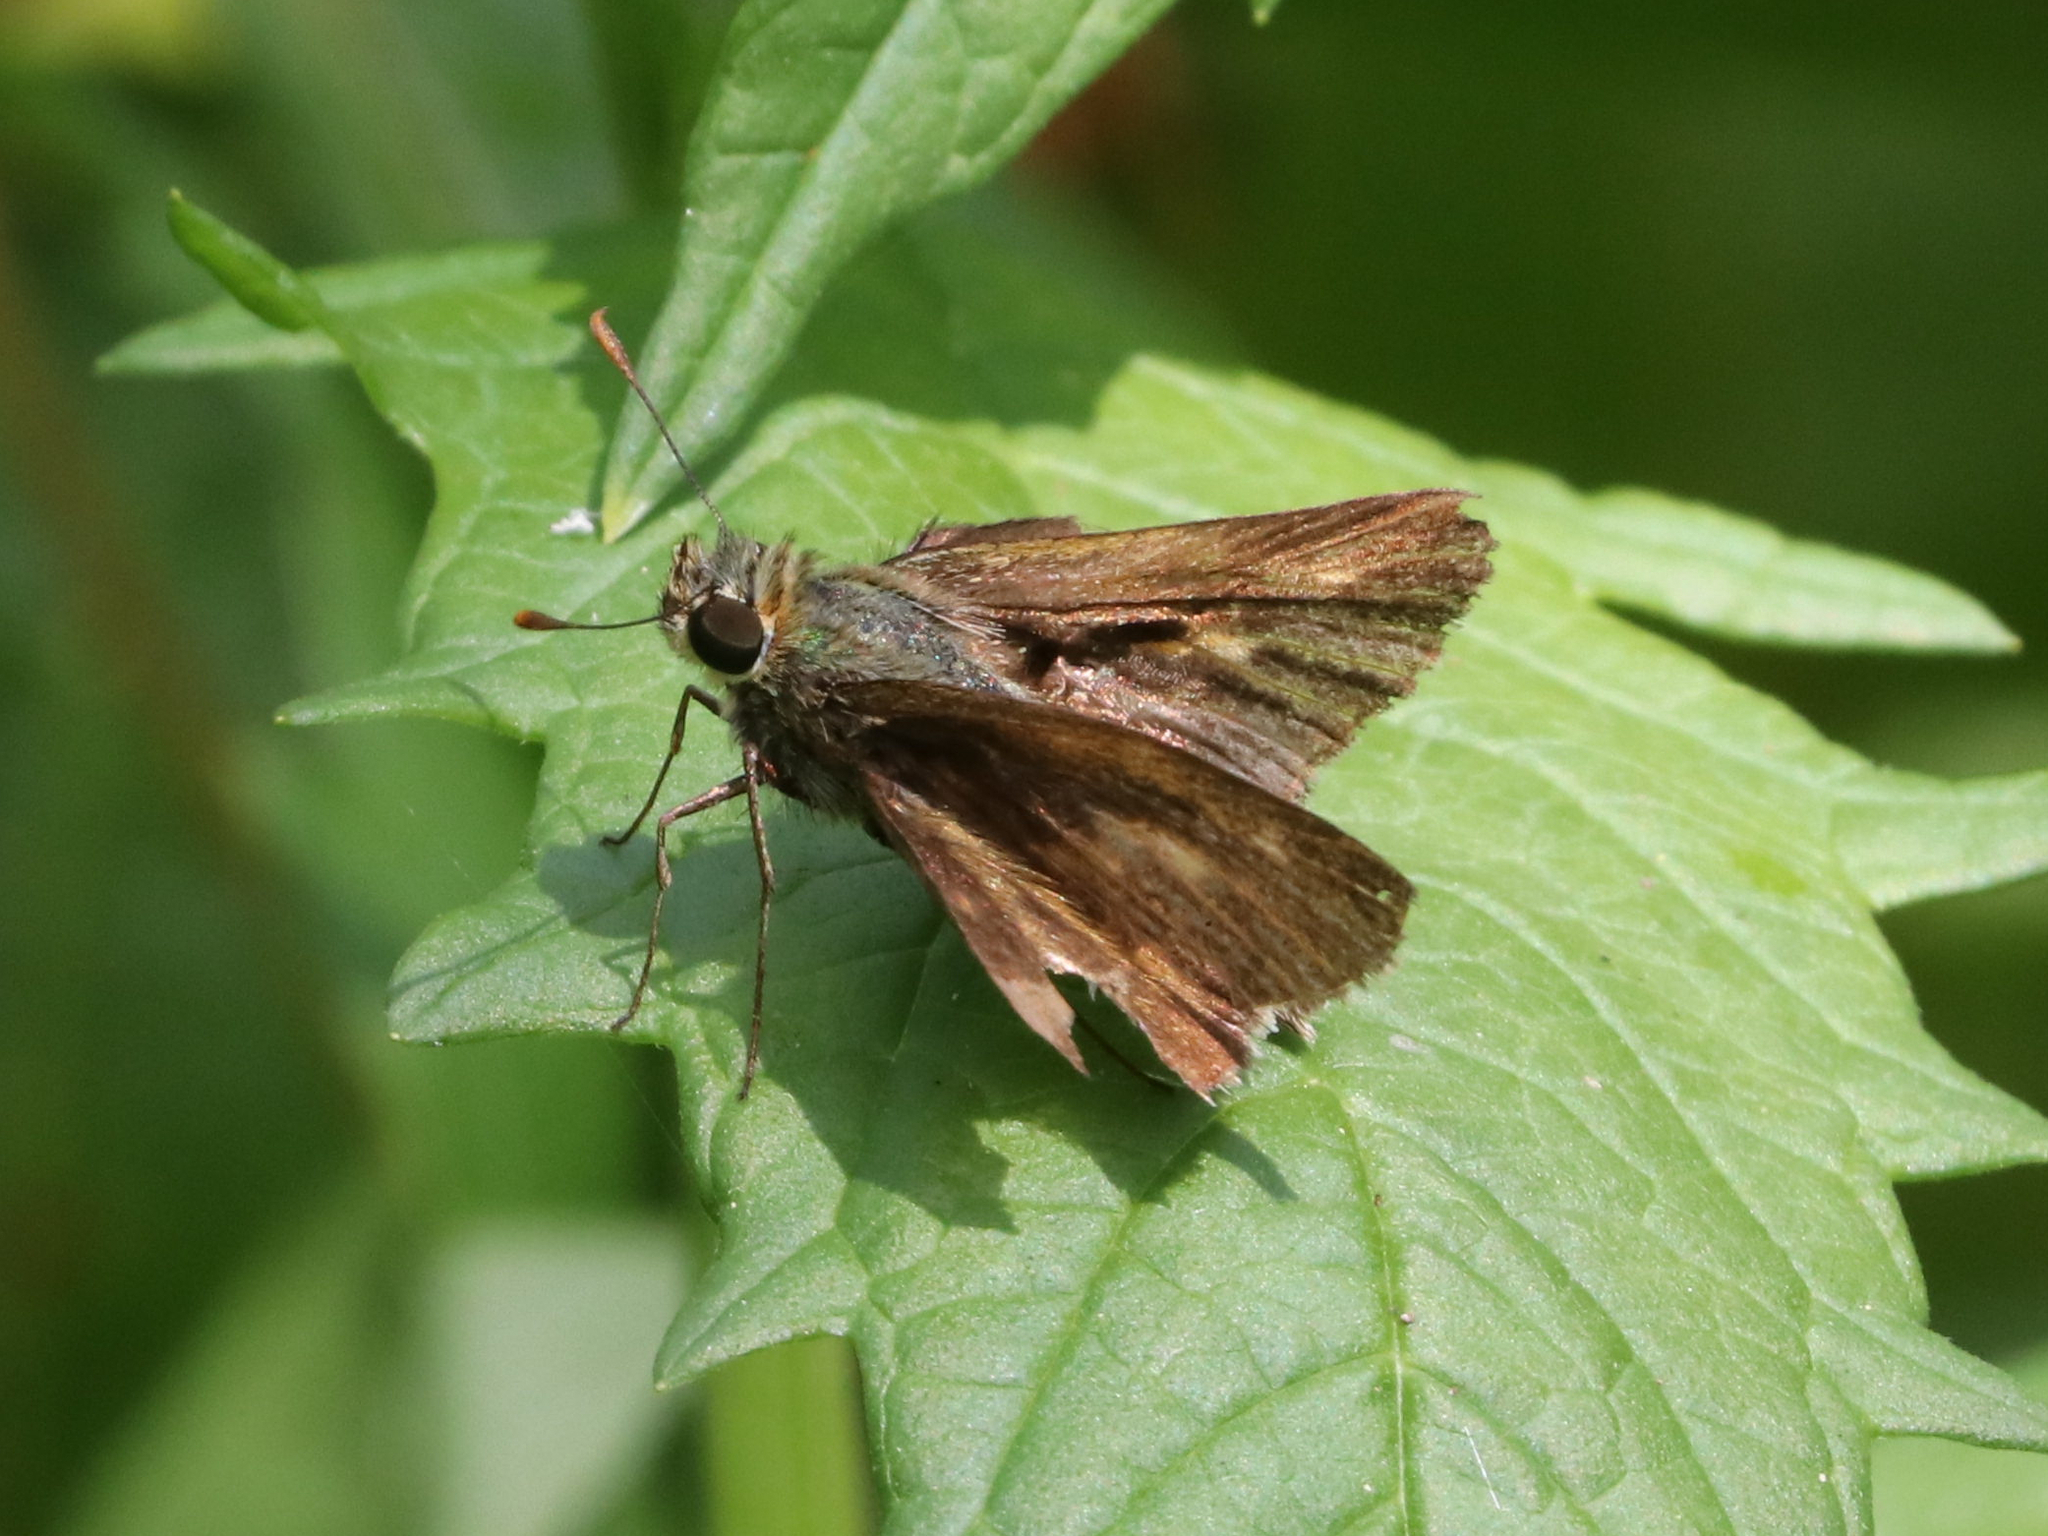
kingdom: Animalia
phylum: Arthropoda
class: Insecta
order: Lepidoptera
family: Hesperiidae
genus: Euphyes
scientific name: Euphyes vestris
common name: Dun skipper
